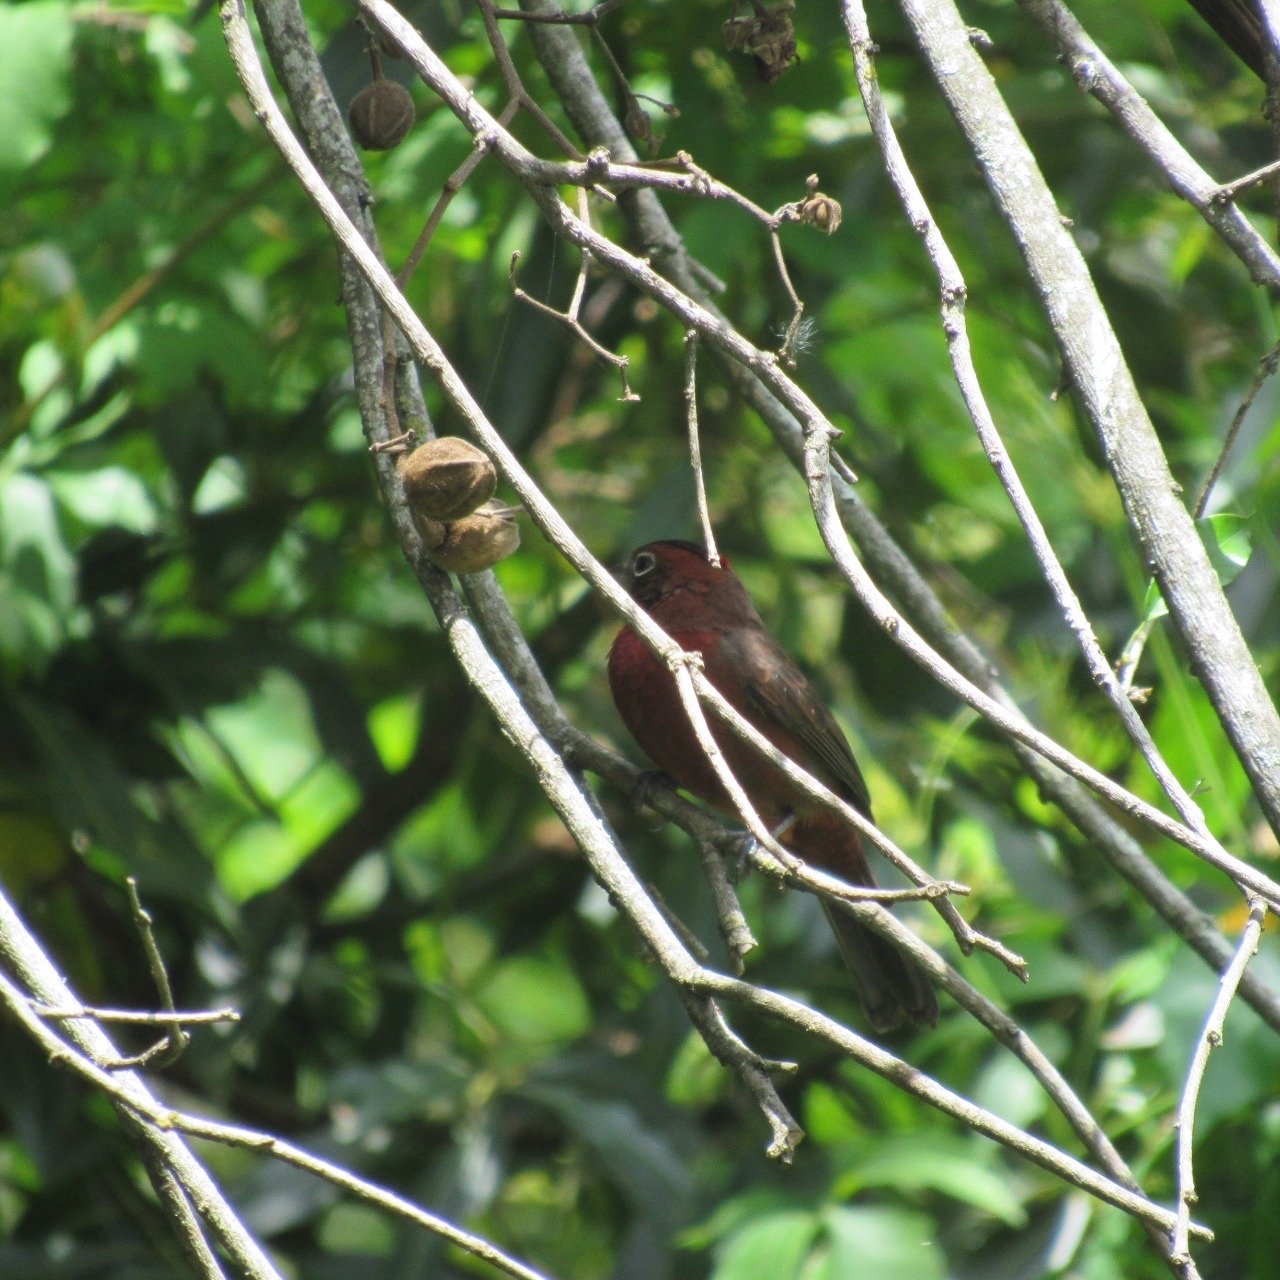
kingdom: Animalia
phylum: Chordata
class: Aves
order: Passeriformes
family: Thraupidae
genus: Coryphospingus
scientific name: Coryphospingus cucullatus
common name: Red pileated finch
